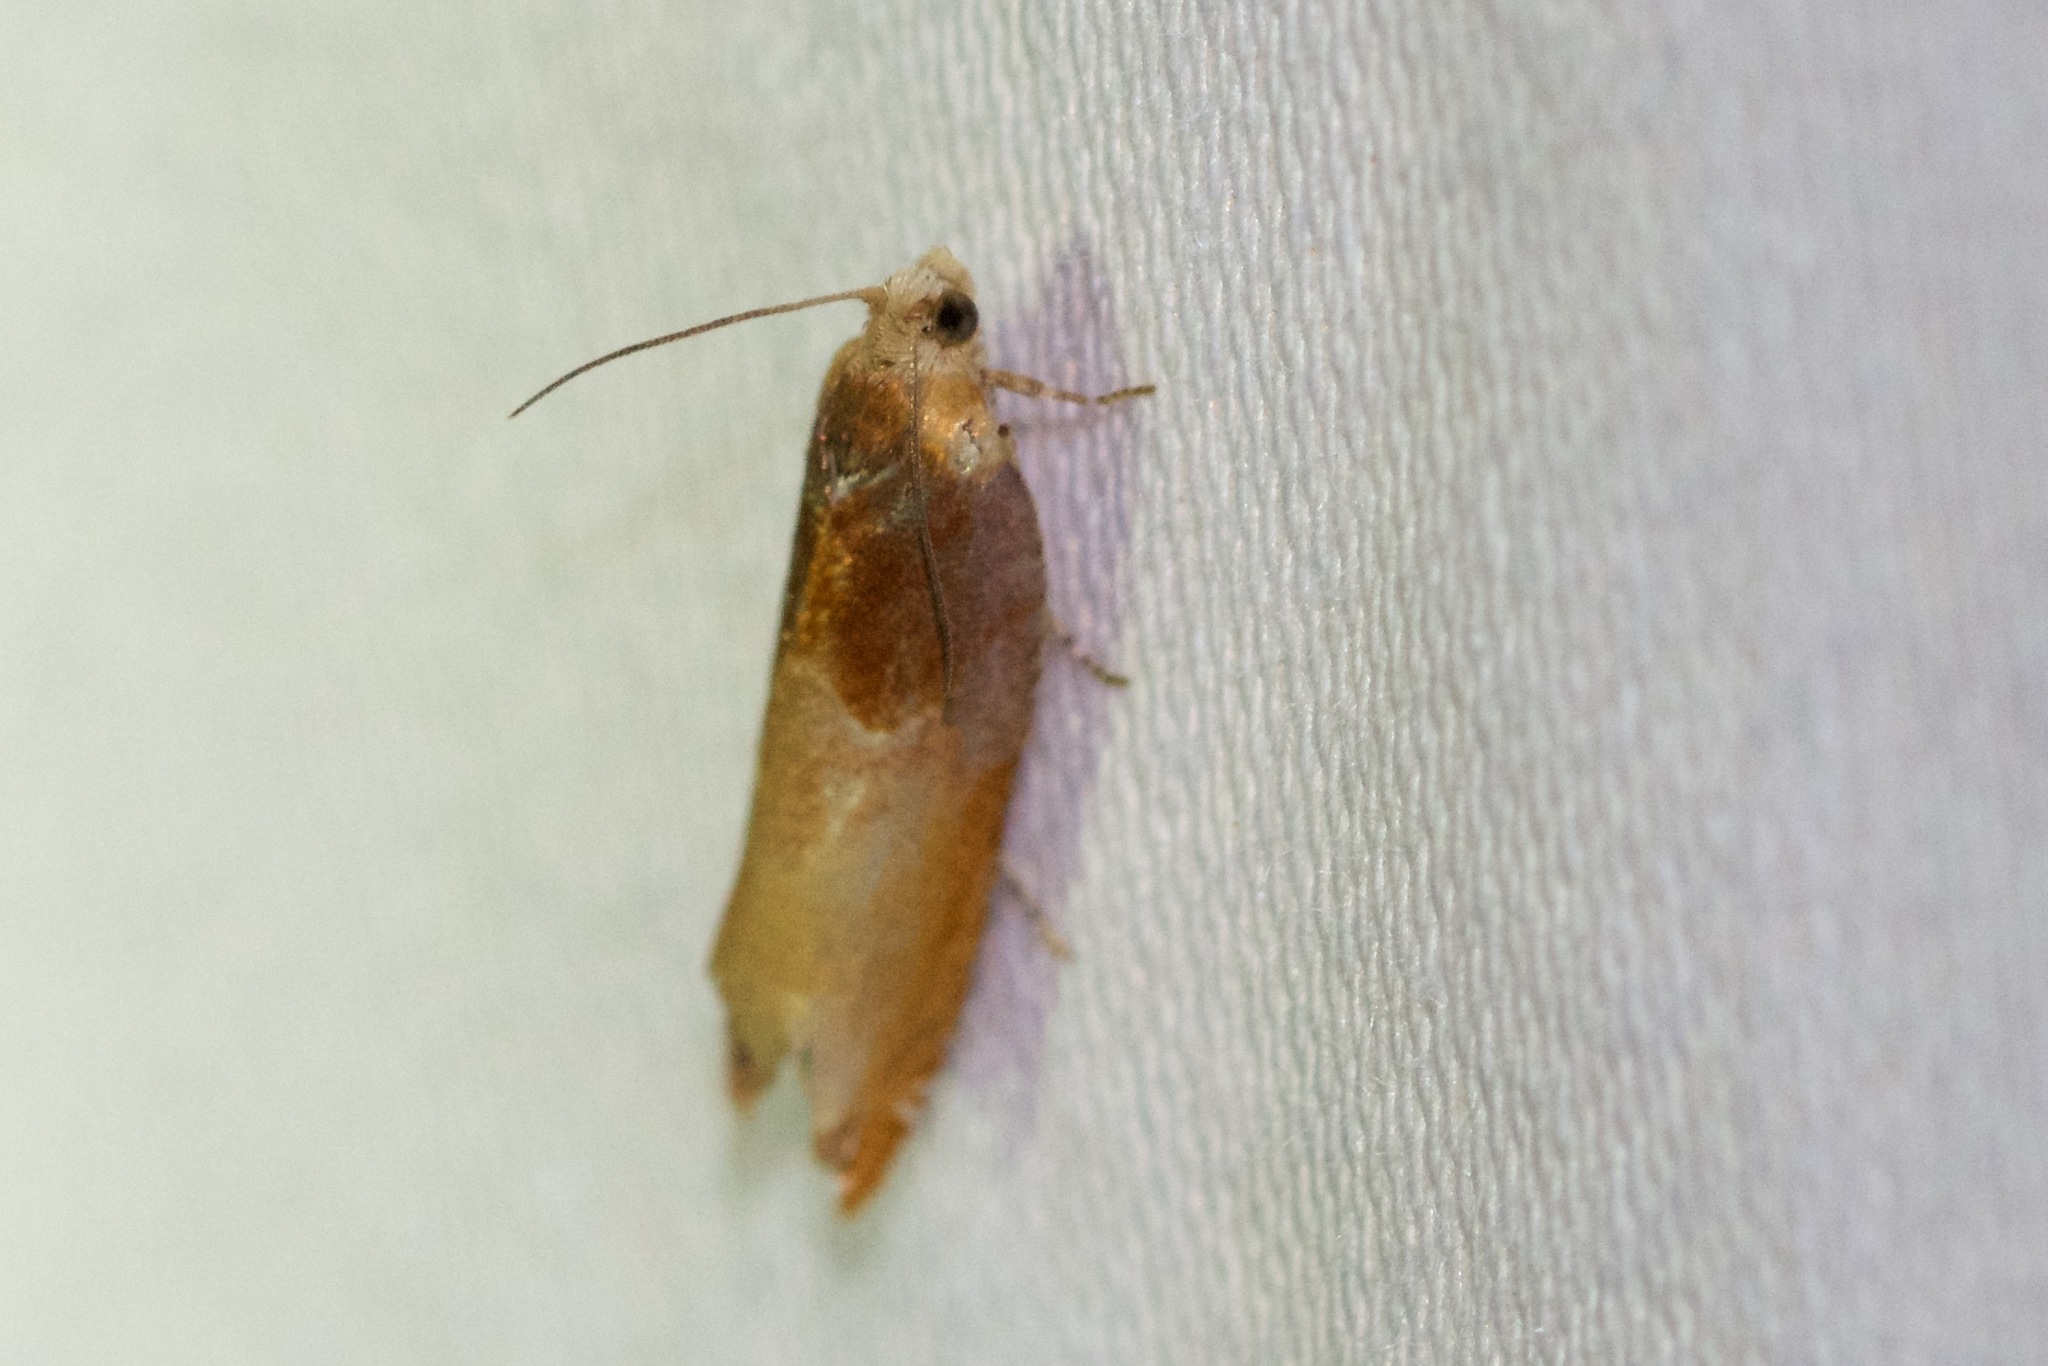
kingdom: Animalia
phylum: Arthropoda
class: Insecta
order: Lepidoptera
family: Tortricidae
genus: Ancylis
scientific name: Ancylis divisana
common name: Two-toned ancylis moth
